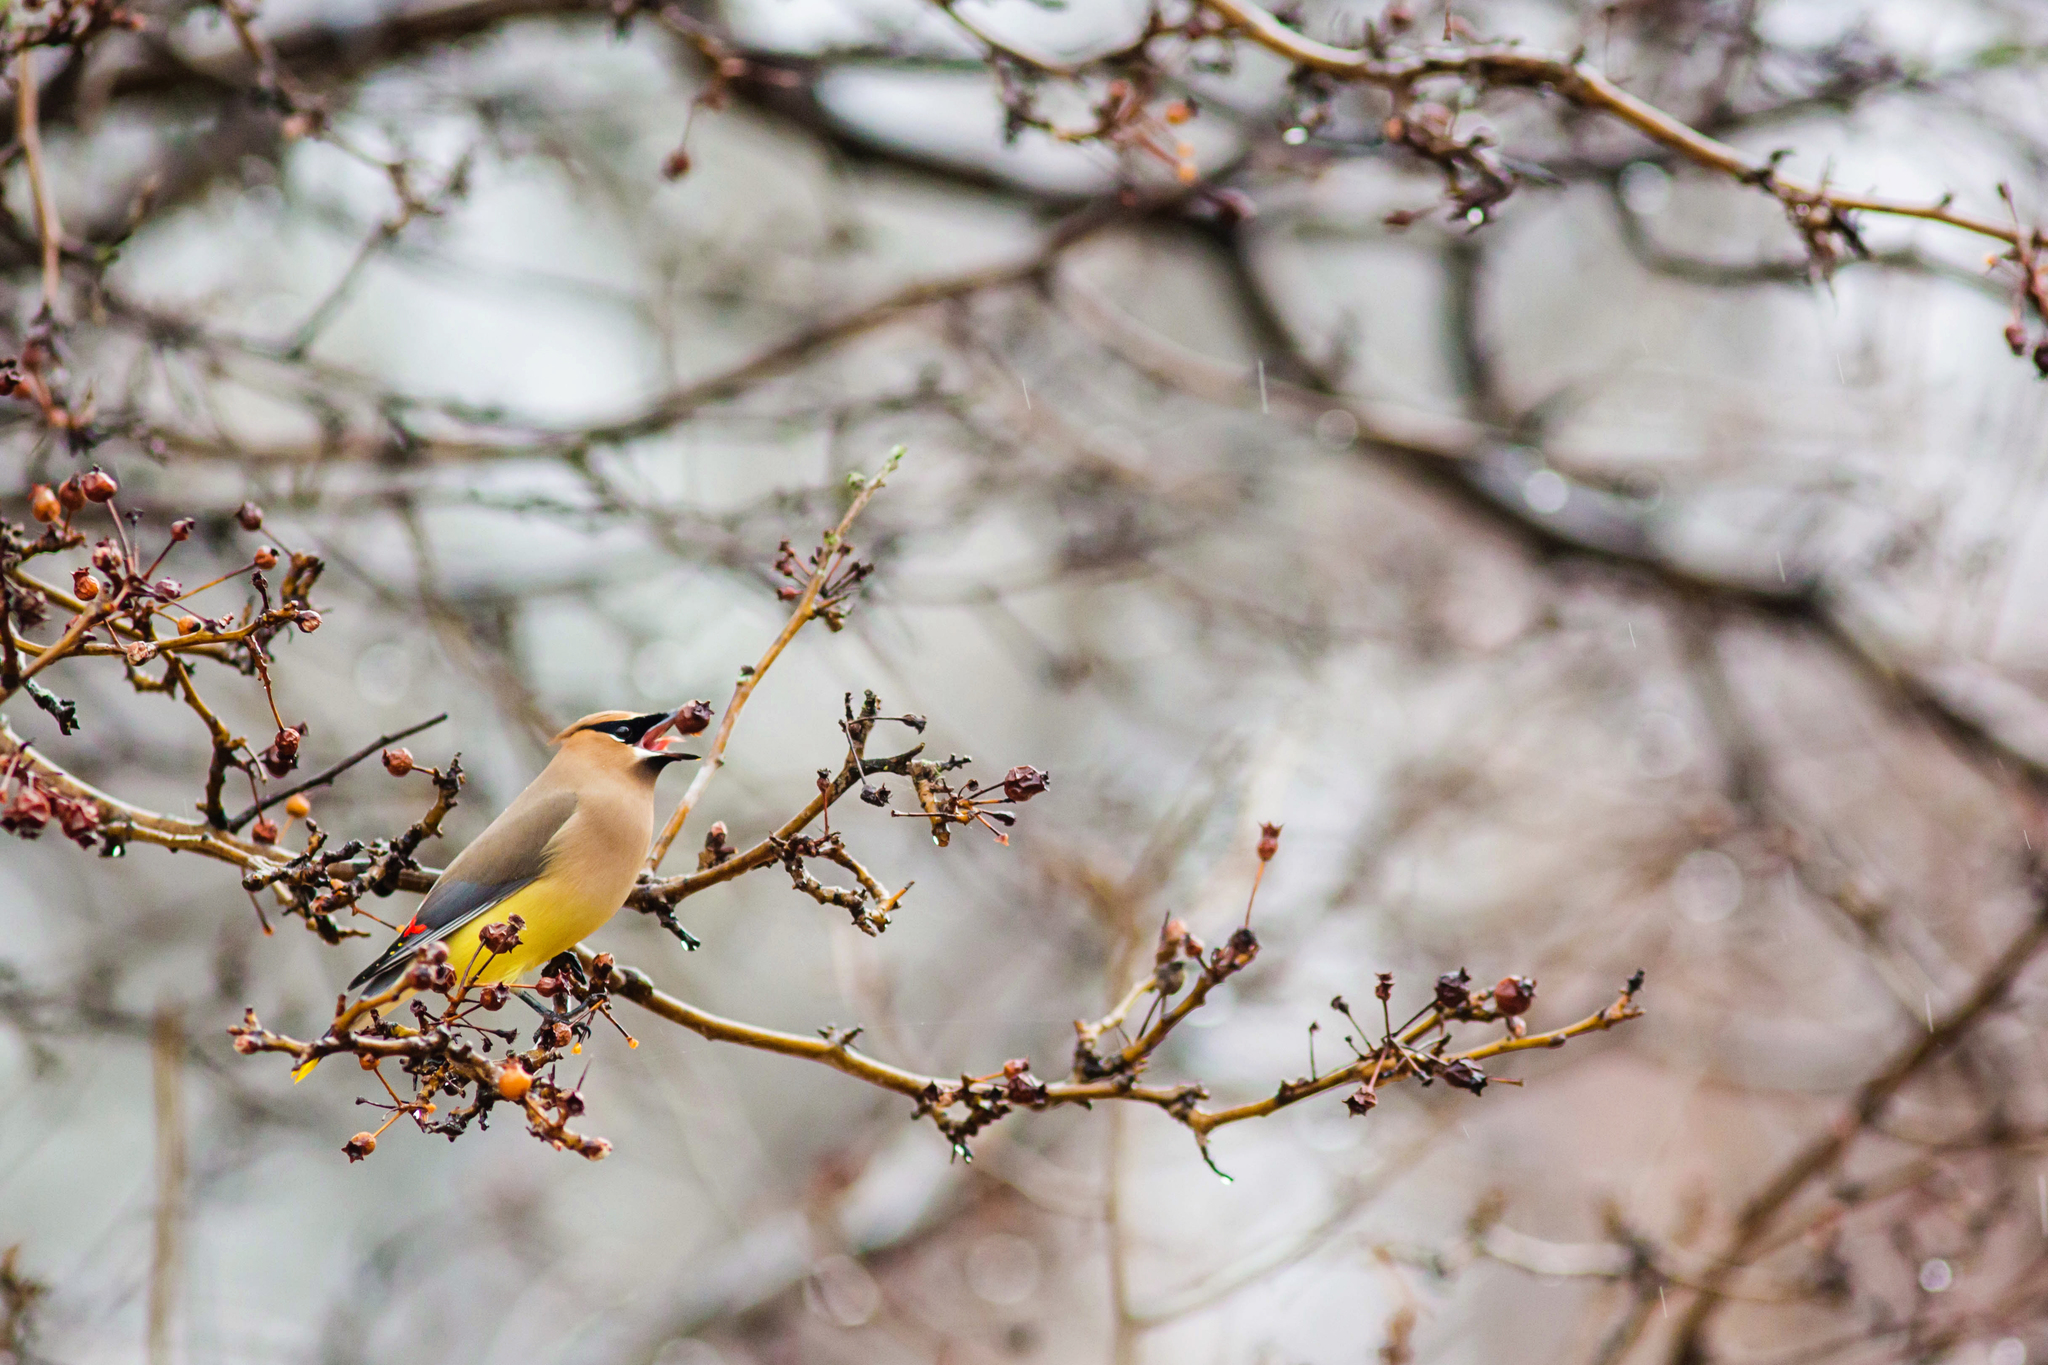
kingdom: Animalia
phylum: Chordata
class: Aves
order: Passeriformes
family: Bombycillidae
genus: Bombycilla
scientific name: Bombycilla cedrorum
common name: Cedar waxwing
